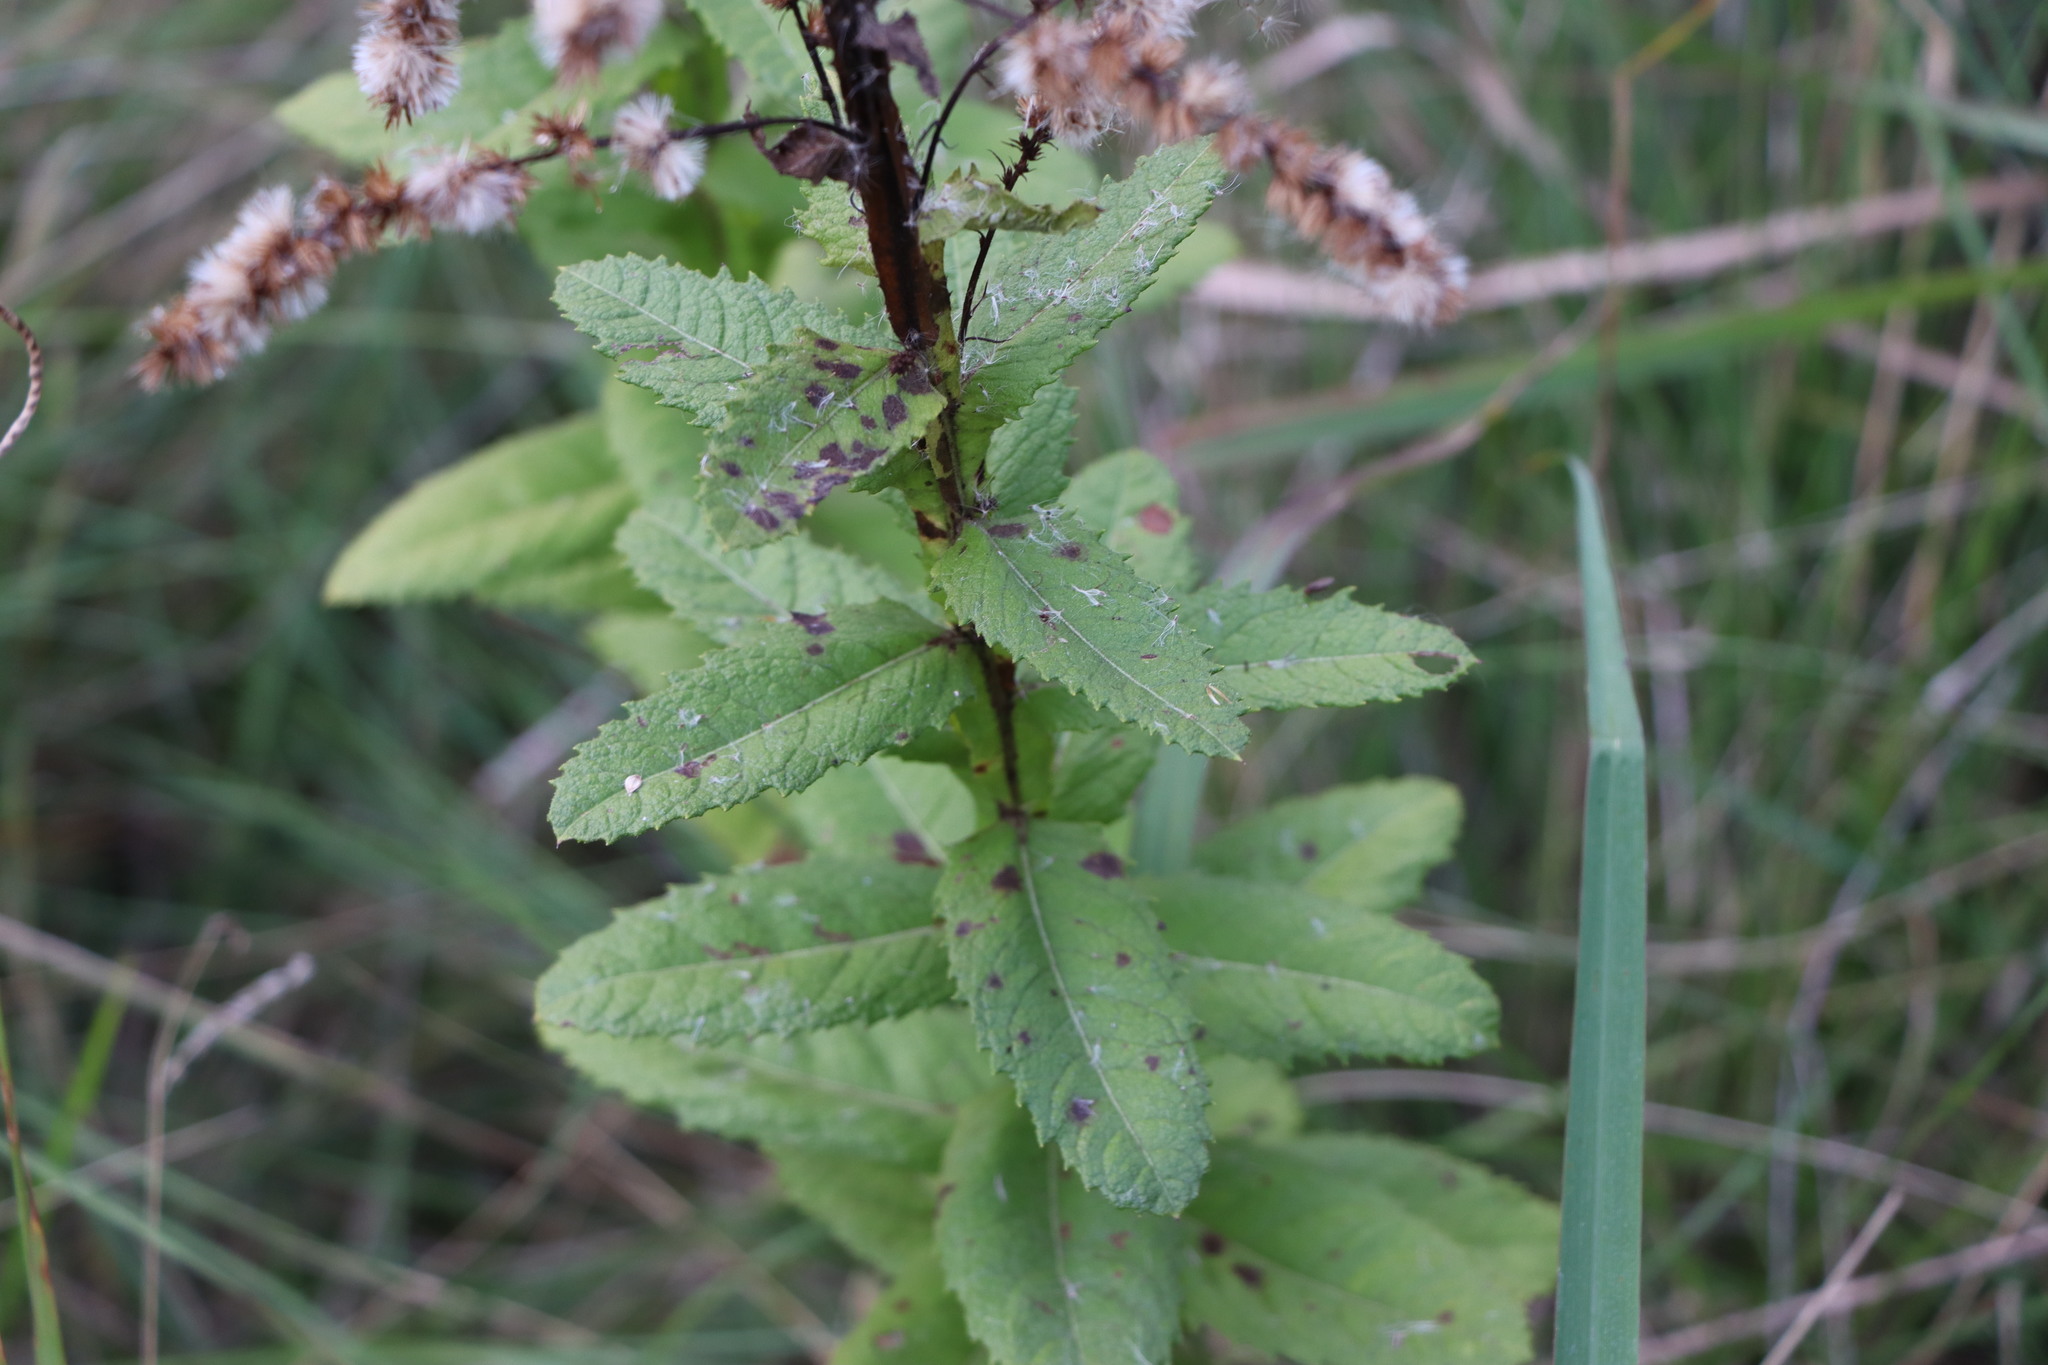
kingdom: Plantae
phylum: Tracheophyta
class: Magnoliopsida
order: Asterales
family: Asteraceae
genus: Pterocaulon
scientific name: Pterocaulon polystachyum
